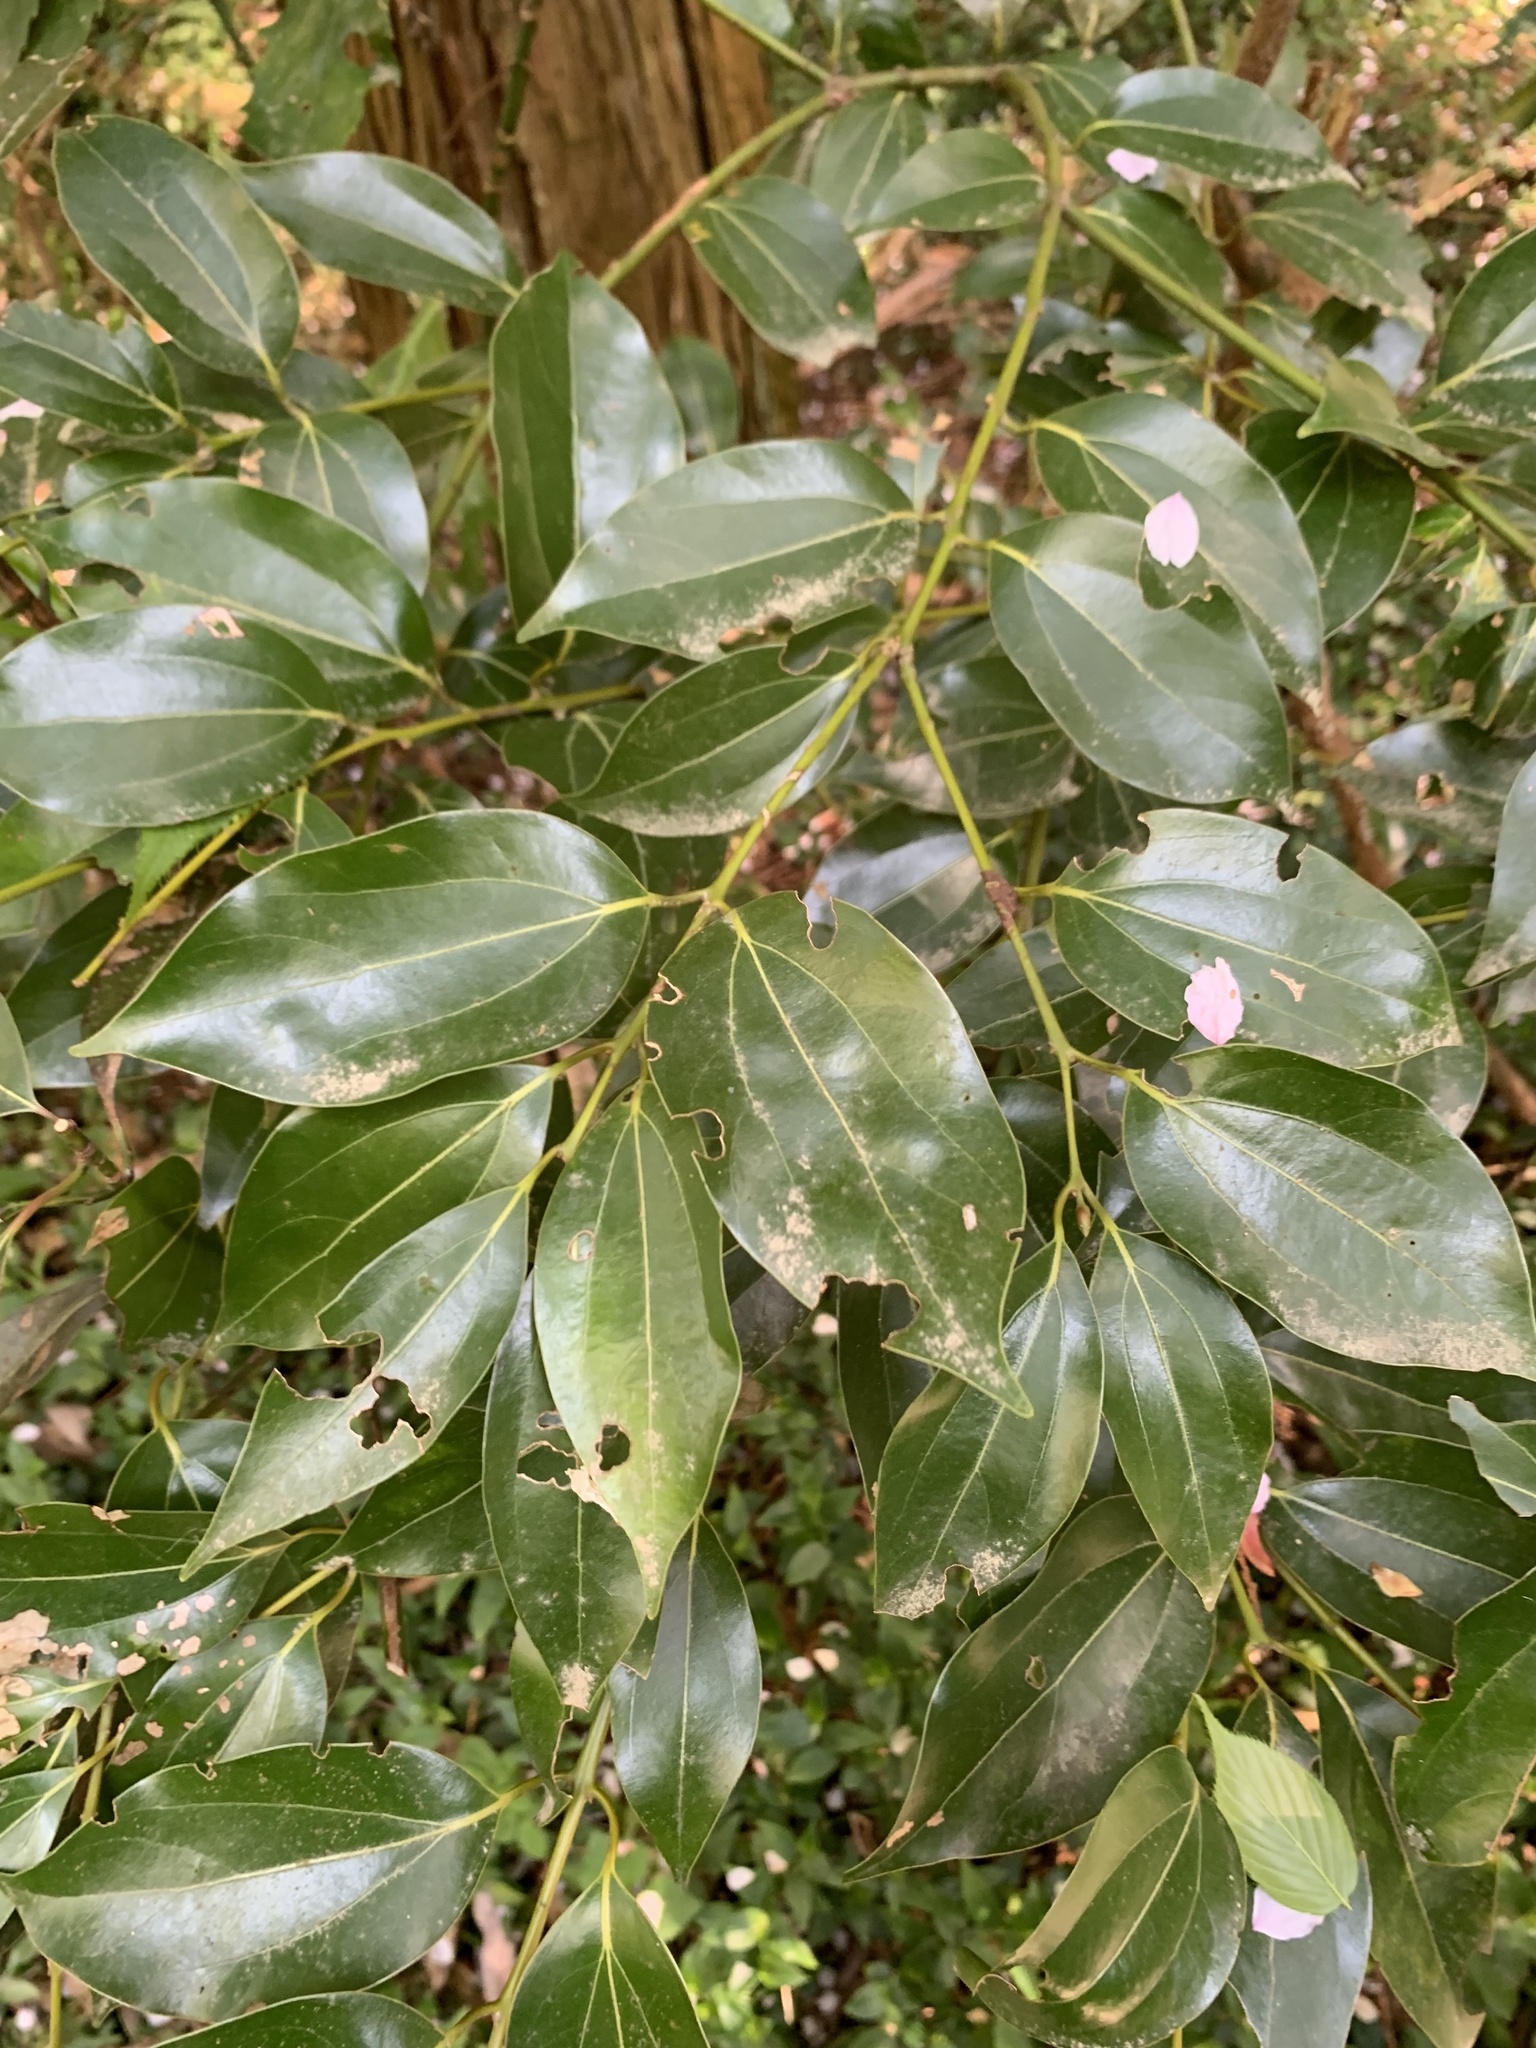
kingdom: Plantae
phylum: Tracheophyta
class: Magnoliopsida
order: Laurales
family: Lauraceae
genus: Cinnamomum
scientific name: Cinnamomum chekiangense
